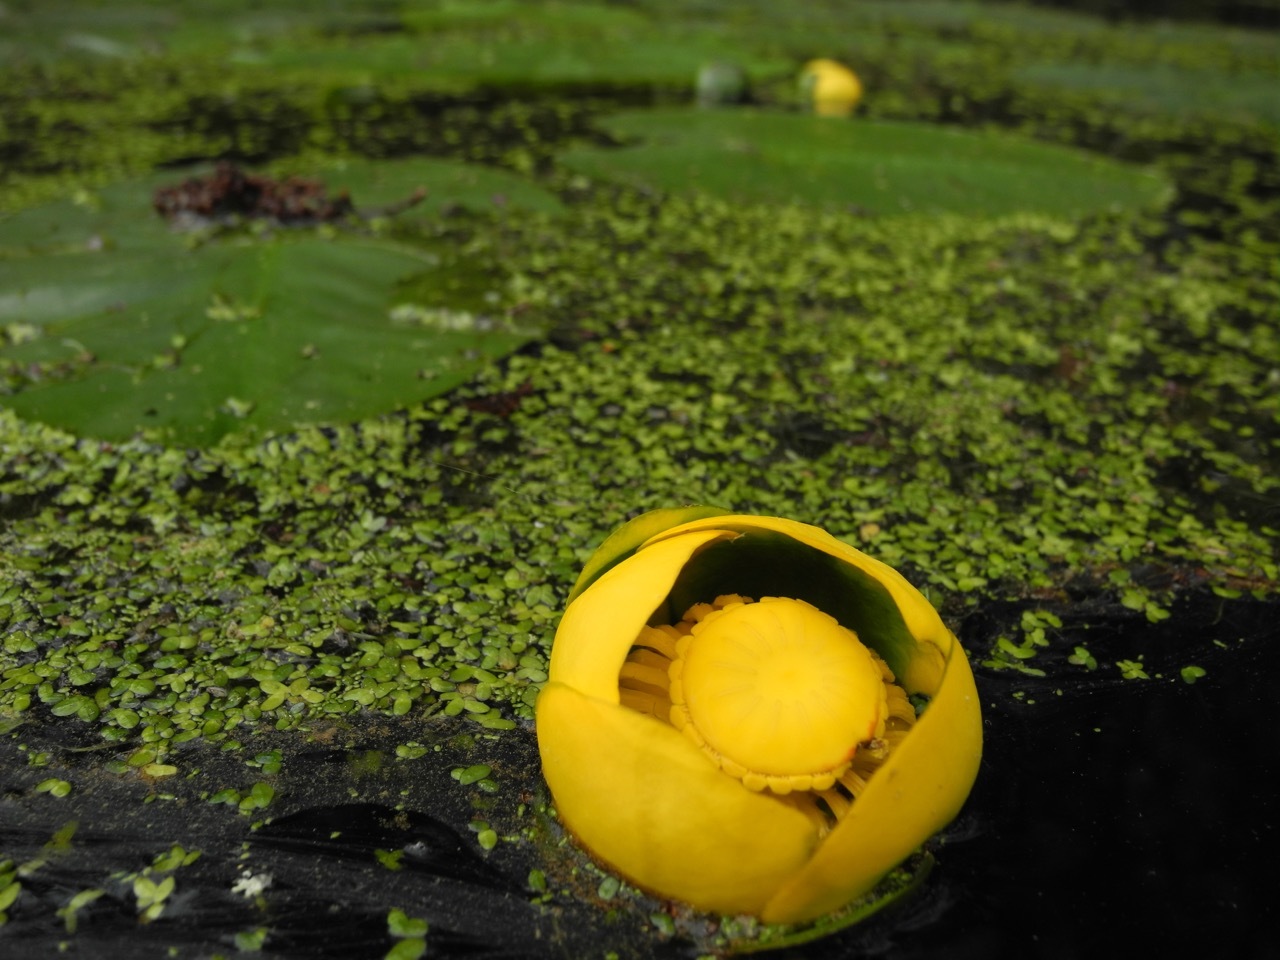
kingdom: Plantae
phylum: Tracheophyta
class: Magnoliopsida
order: Nymphaeales
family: Nymphaeaceae
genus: Nuphar
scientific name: Nuphar advena
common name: Spatter-dock
